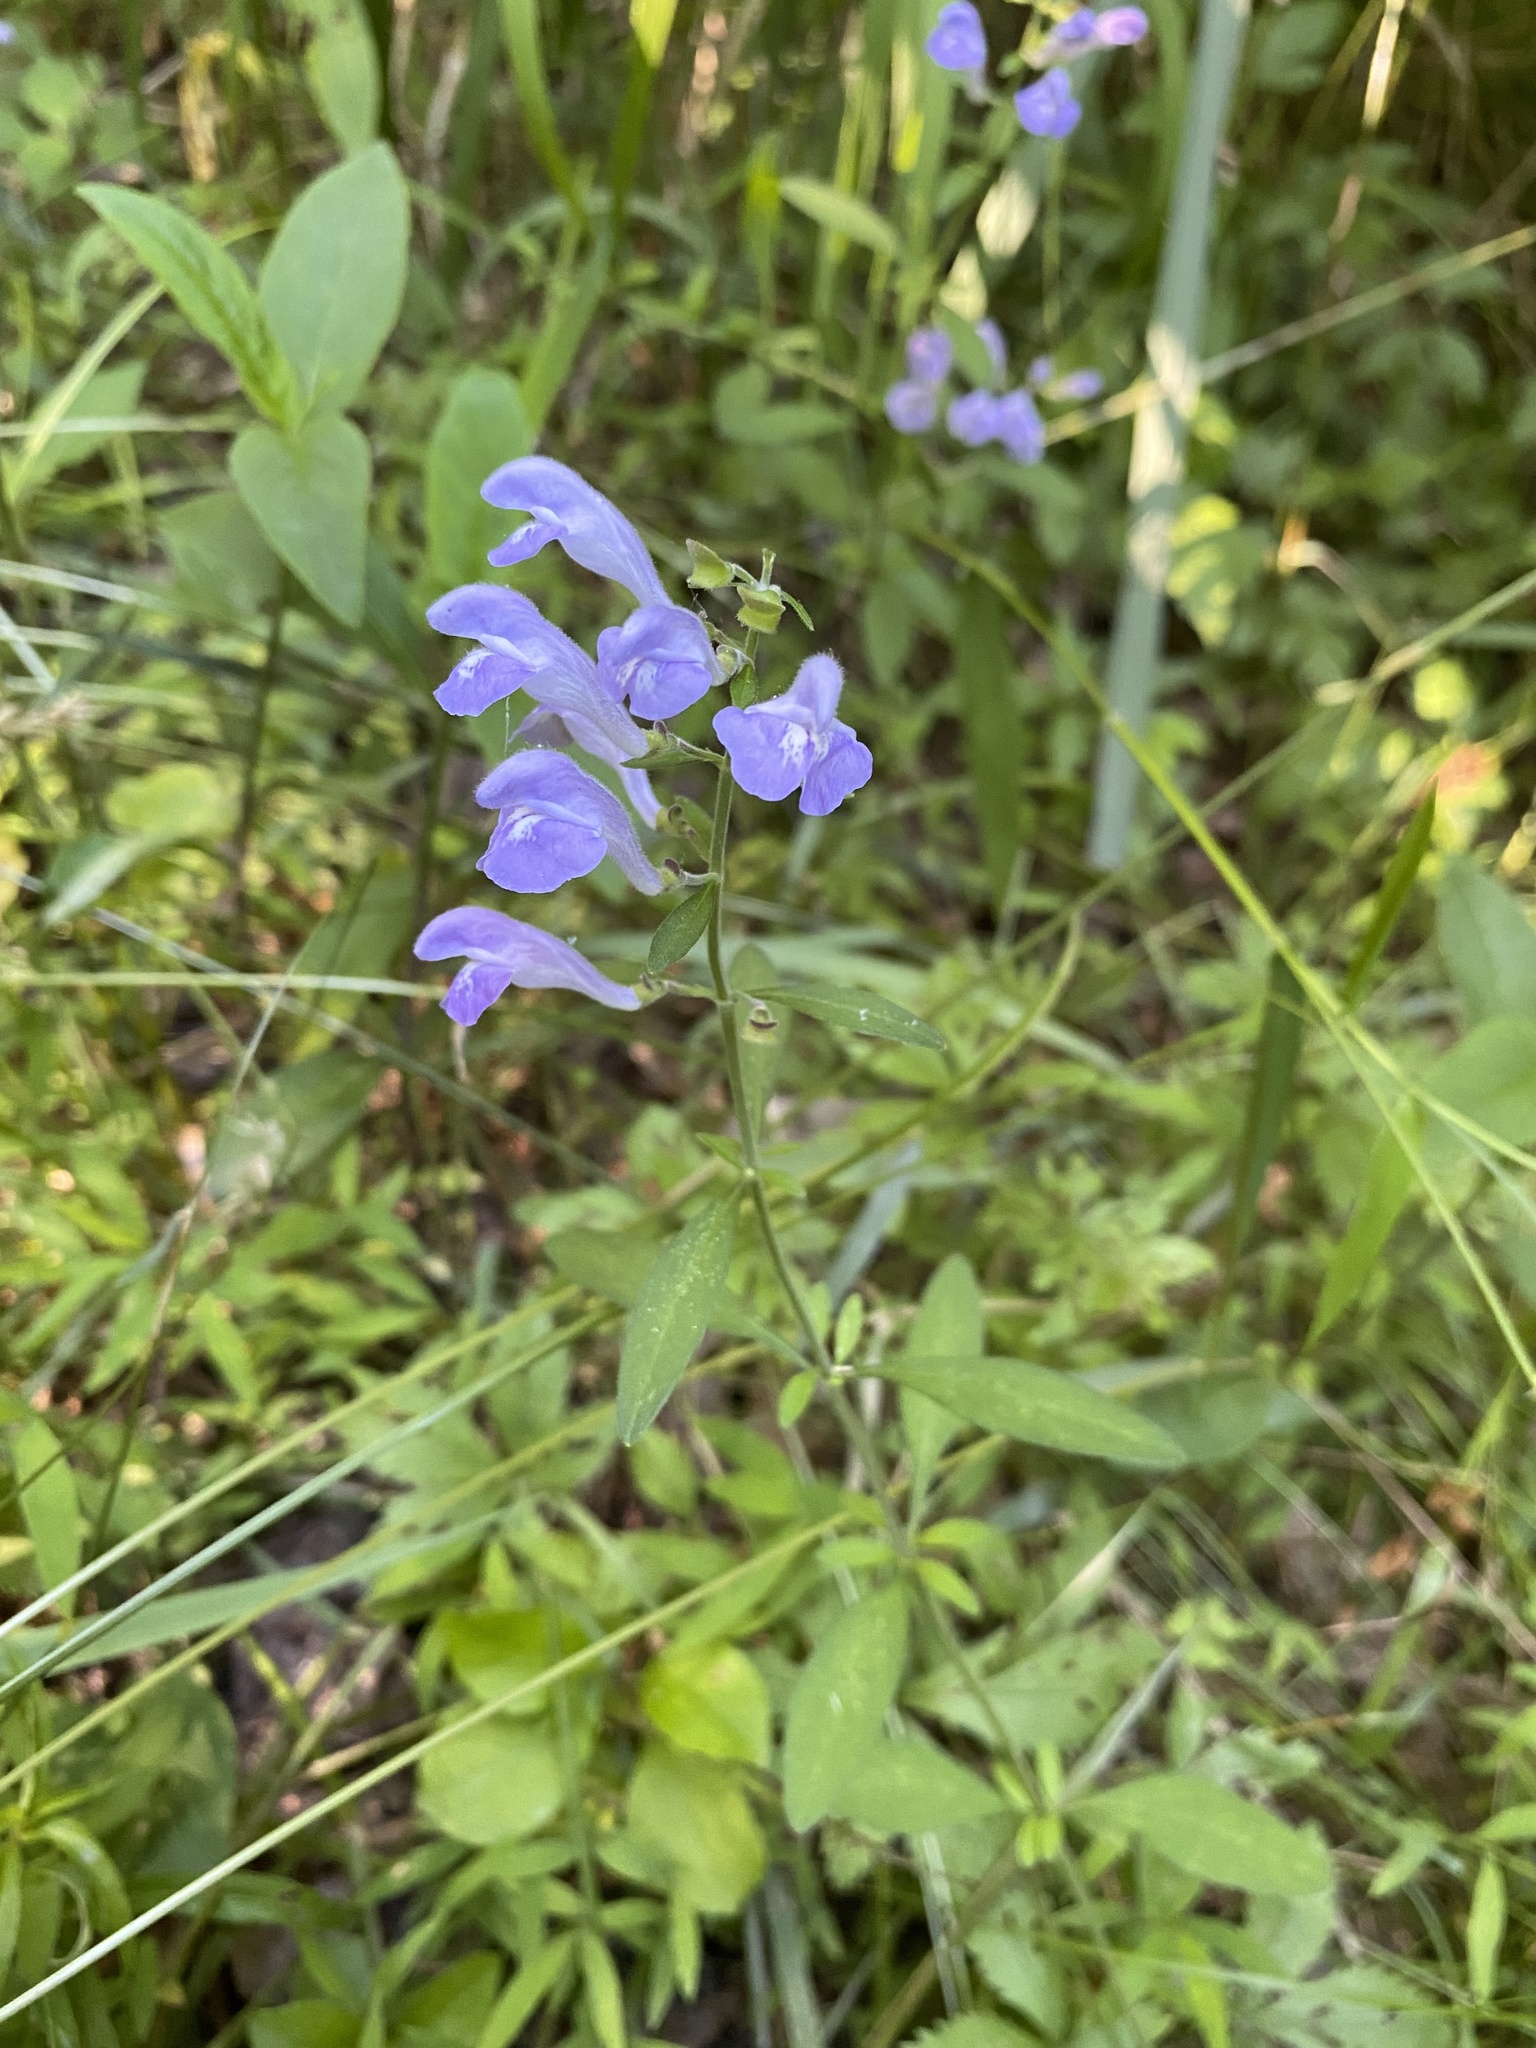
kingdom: Plantae
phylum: Tracheophyta
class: Magnoliopsida
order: Lamiales
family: Lamiaceae
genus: Scutellaria
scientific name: Scutellaria integrifolia
